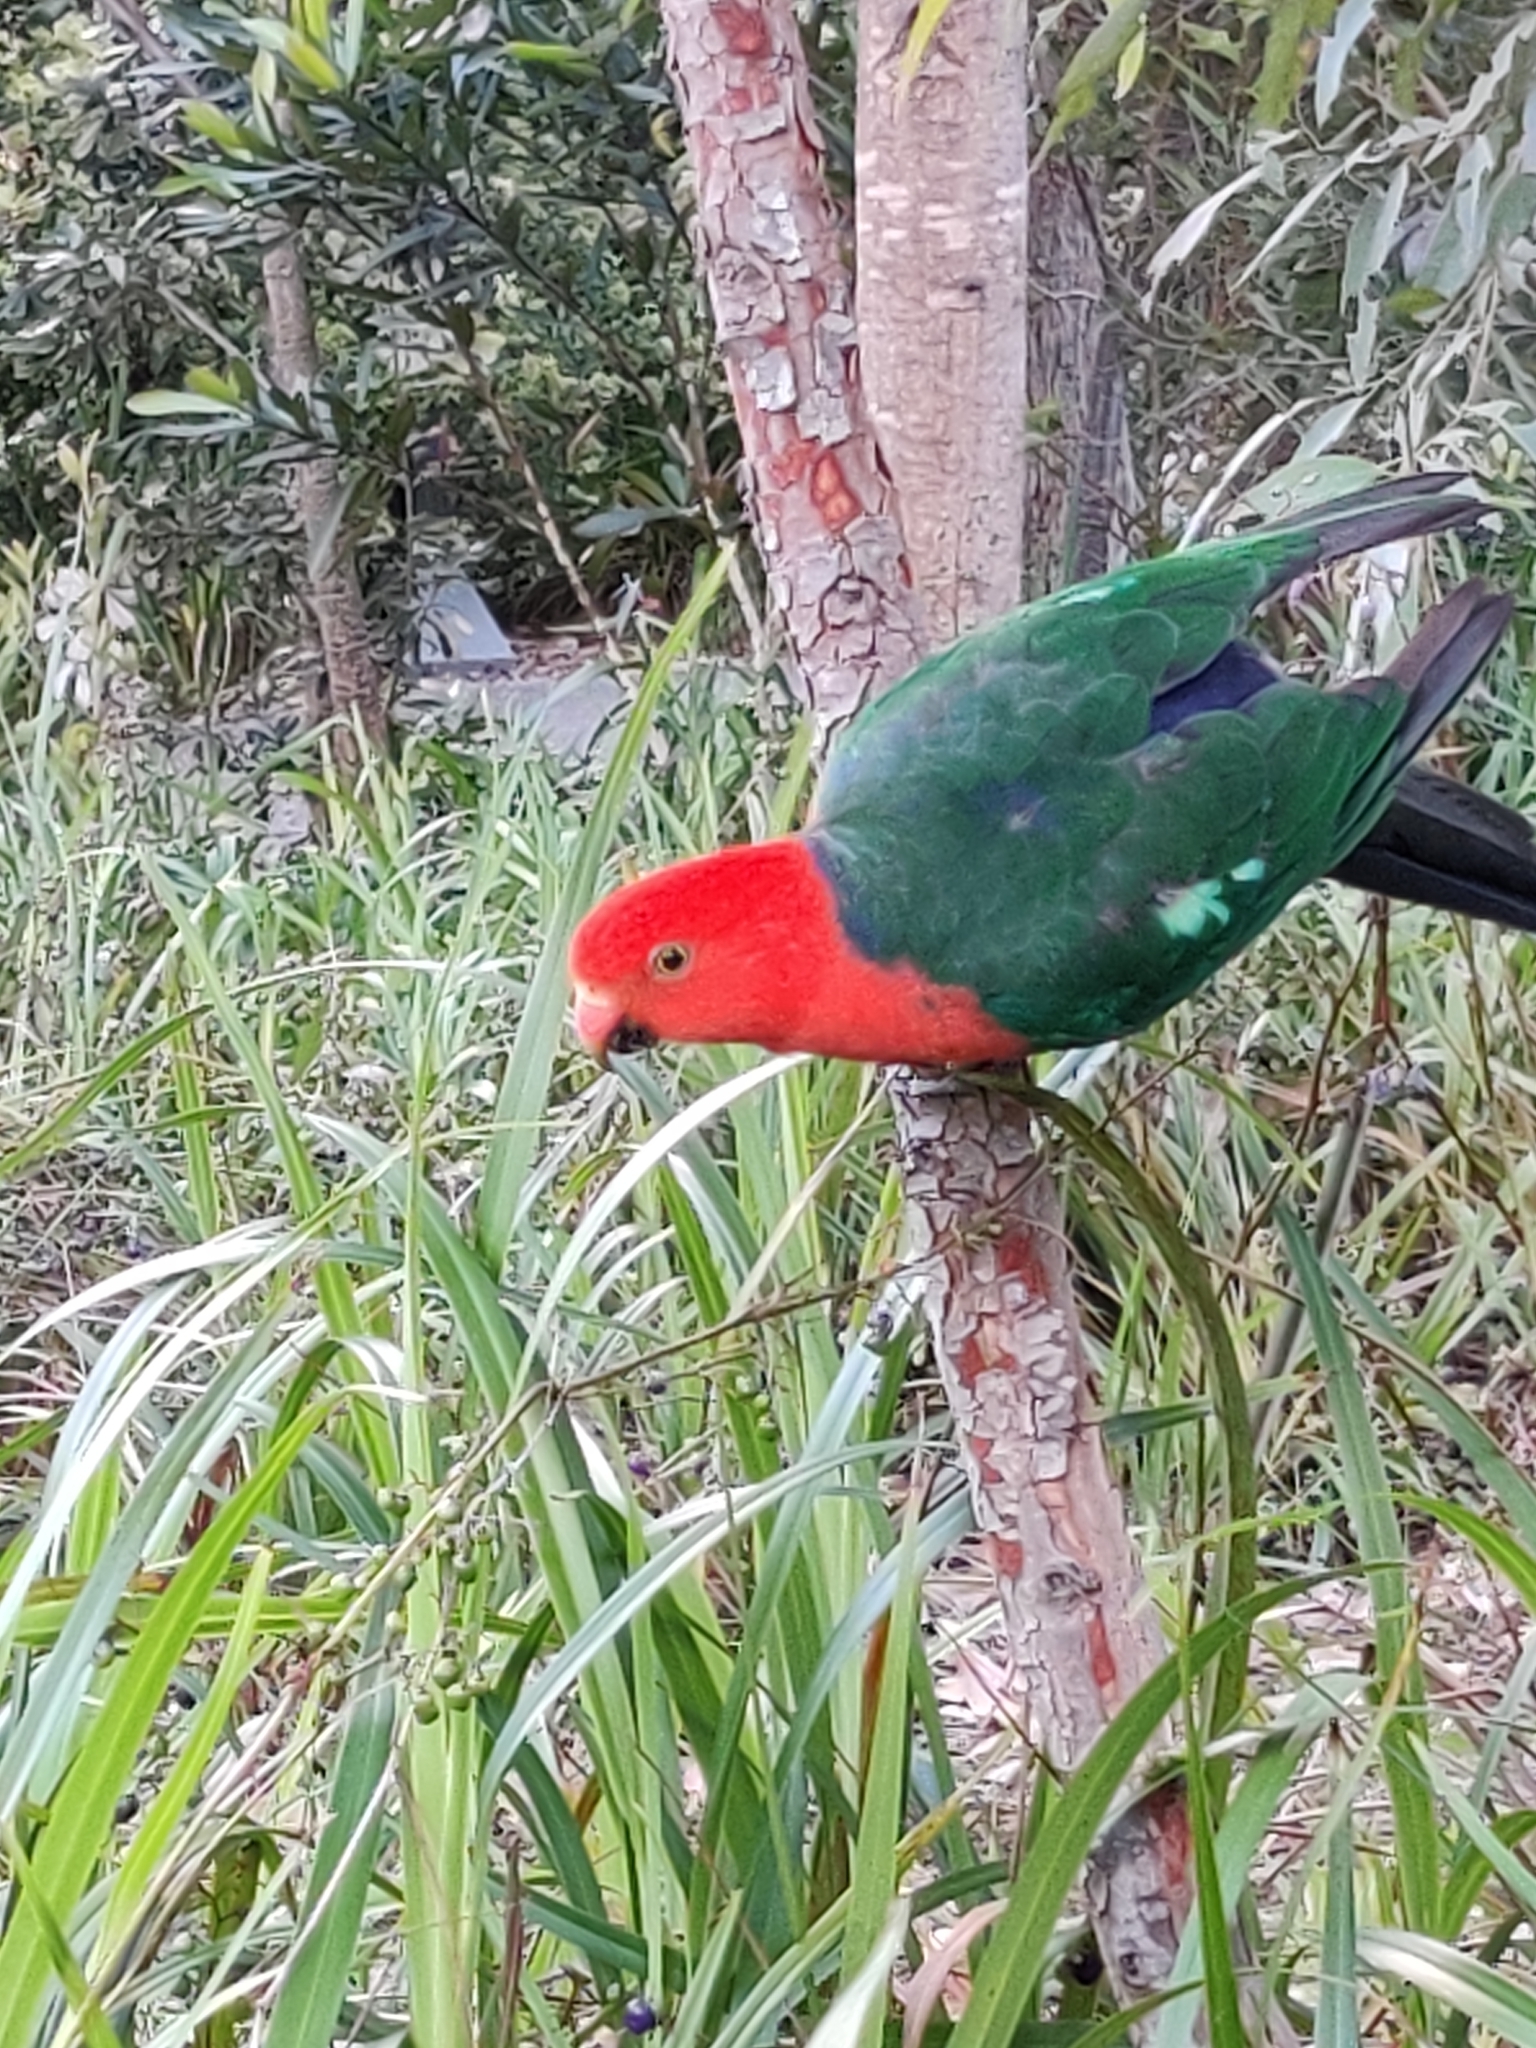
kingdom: Animalia
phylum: Chordata
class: Aves
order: Psittaciformes
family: Psittacidae
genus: Alisterus
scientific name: Alisterus scapularis
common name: Australian king parrot
